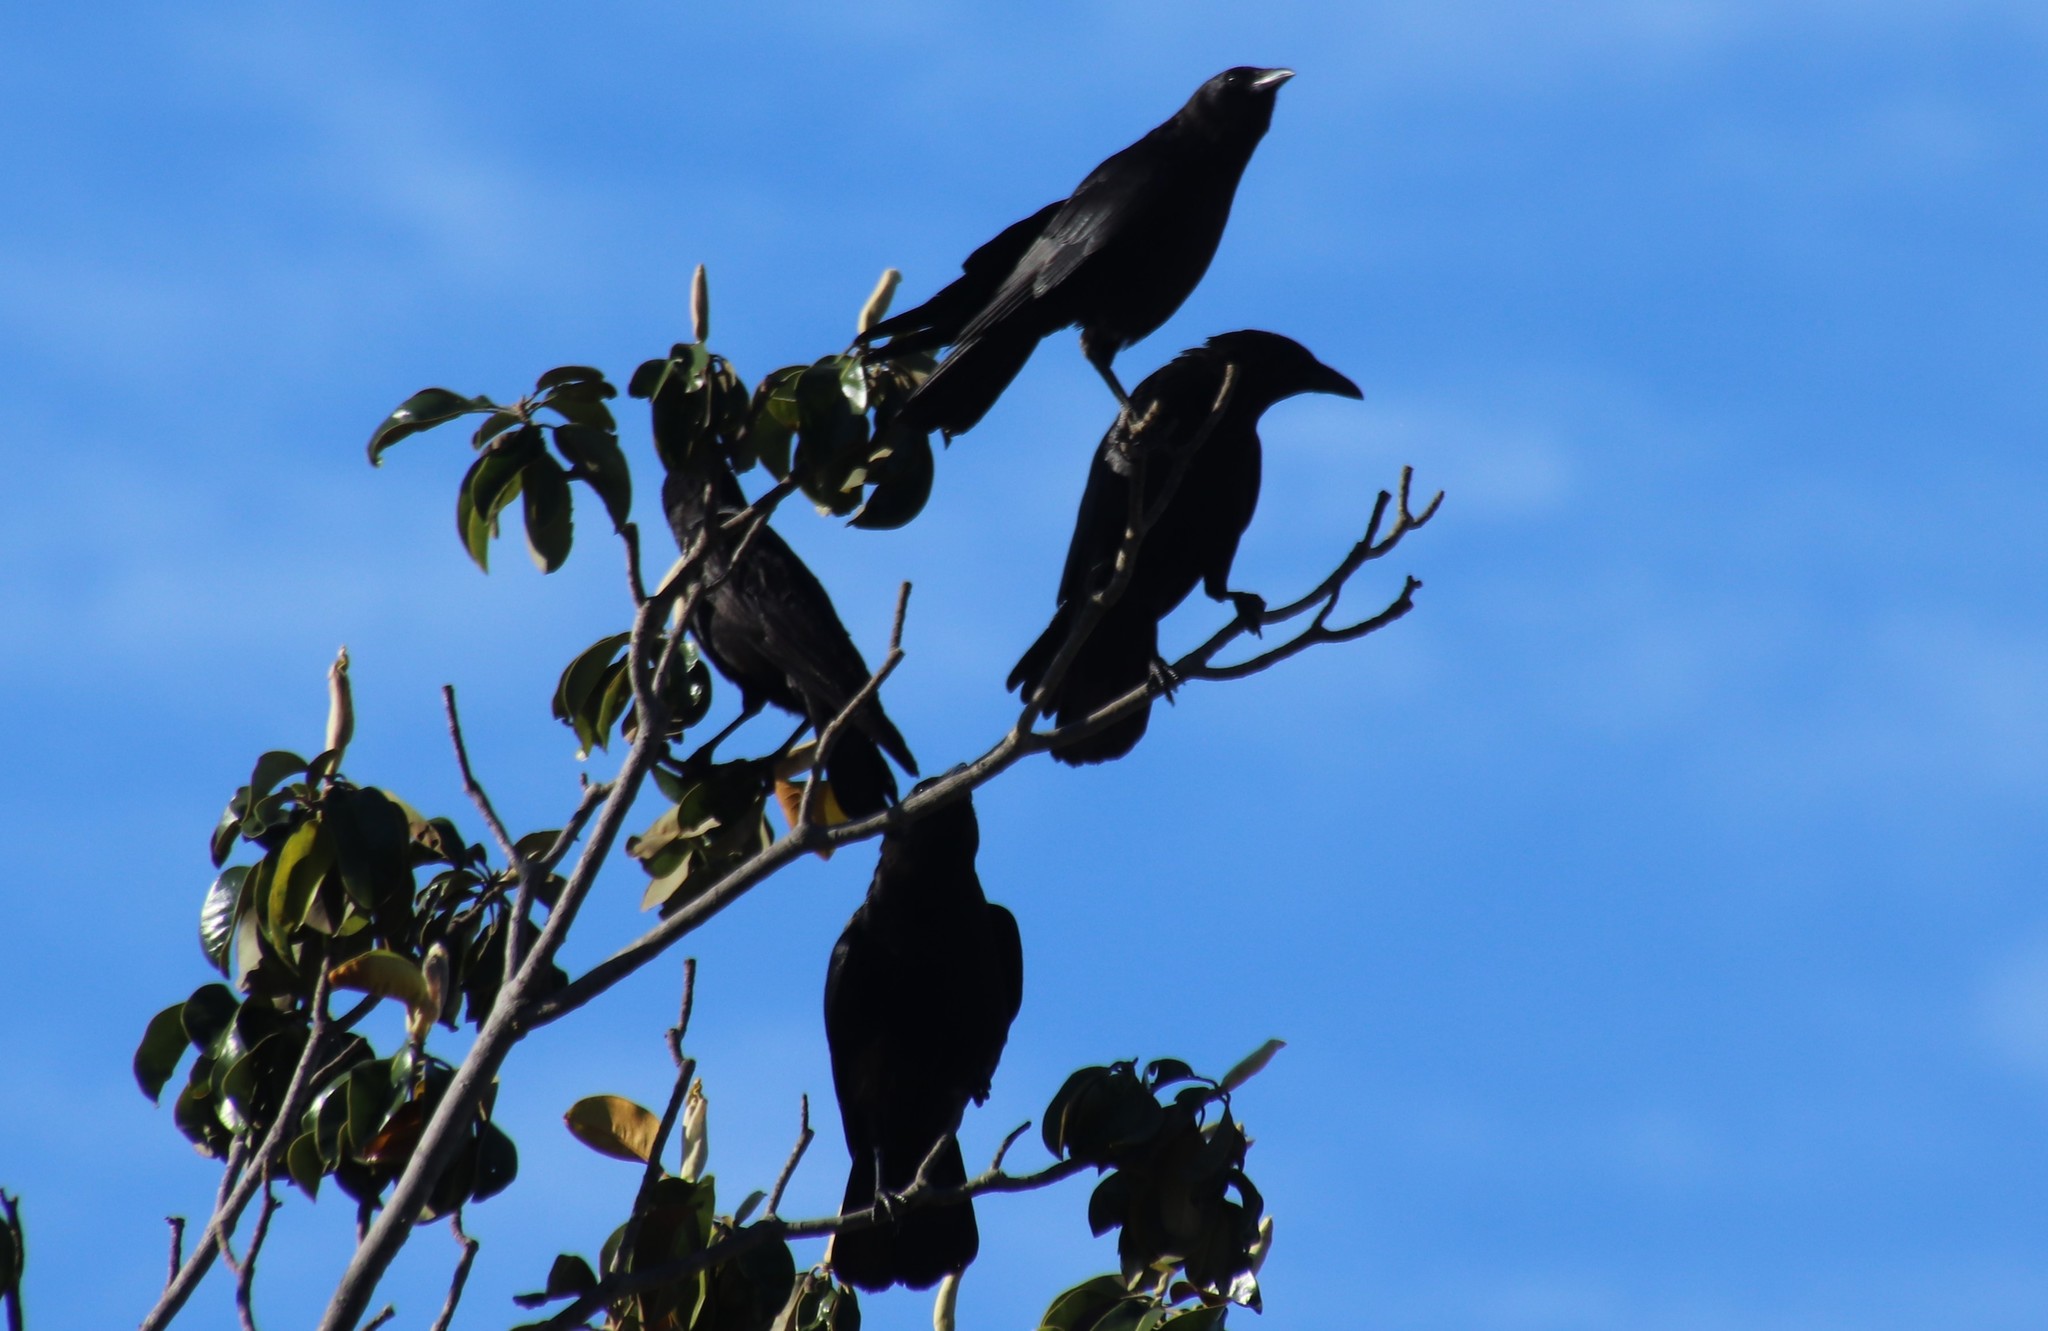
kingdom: Animalia
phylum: Chordata
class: Aves
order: Passeriformes
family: Corvidae
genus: Corvus
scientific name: Corvus brachyrhynchos
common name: American crow
